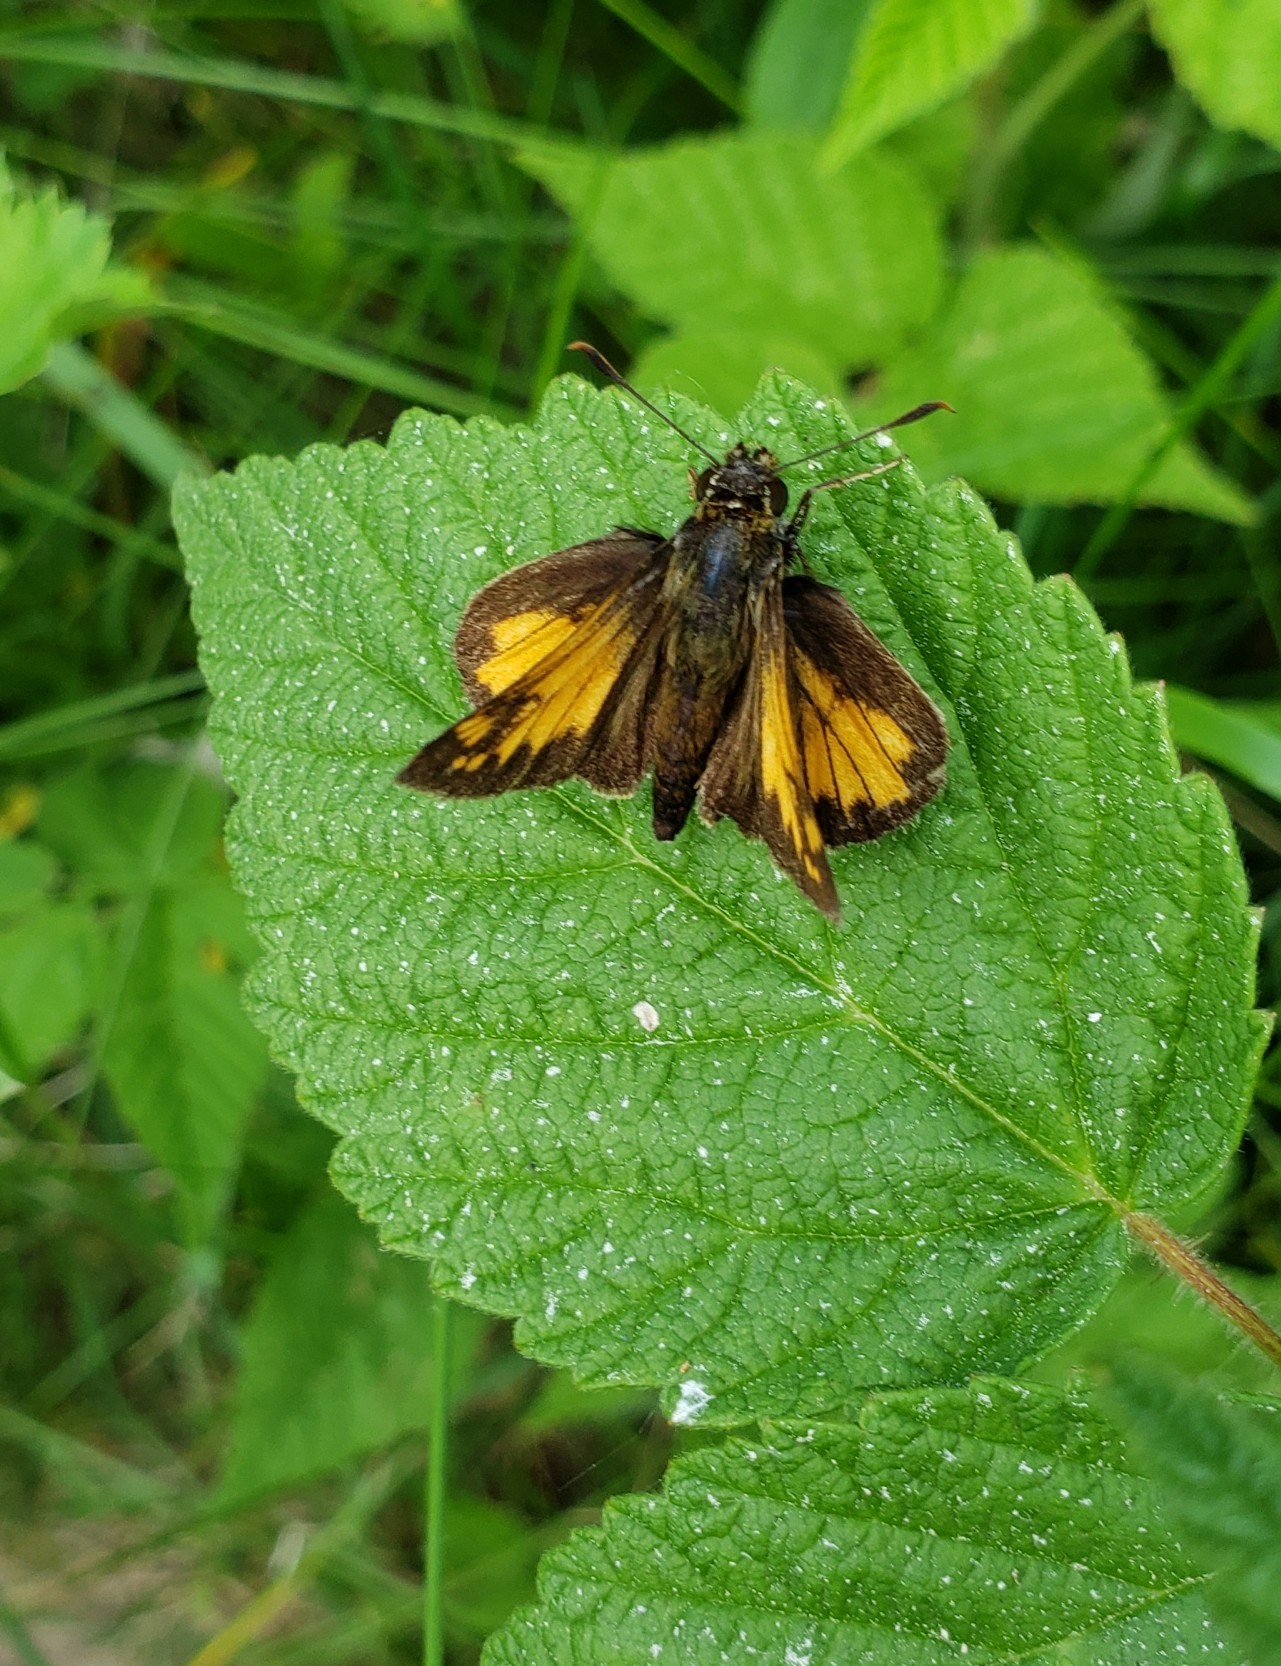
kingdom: Animalia
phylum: Arthropoda
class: Insecta
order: Lepidoptera
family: Hesperiidae
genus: Lon
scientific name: Lon hobomok
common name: Hobomok skipper
